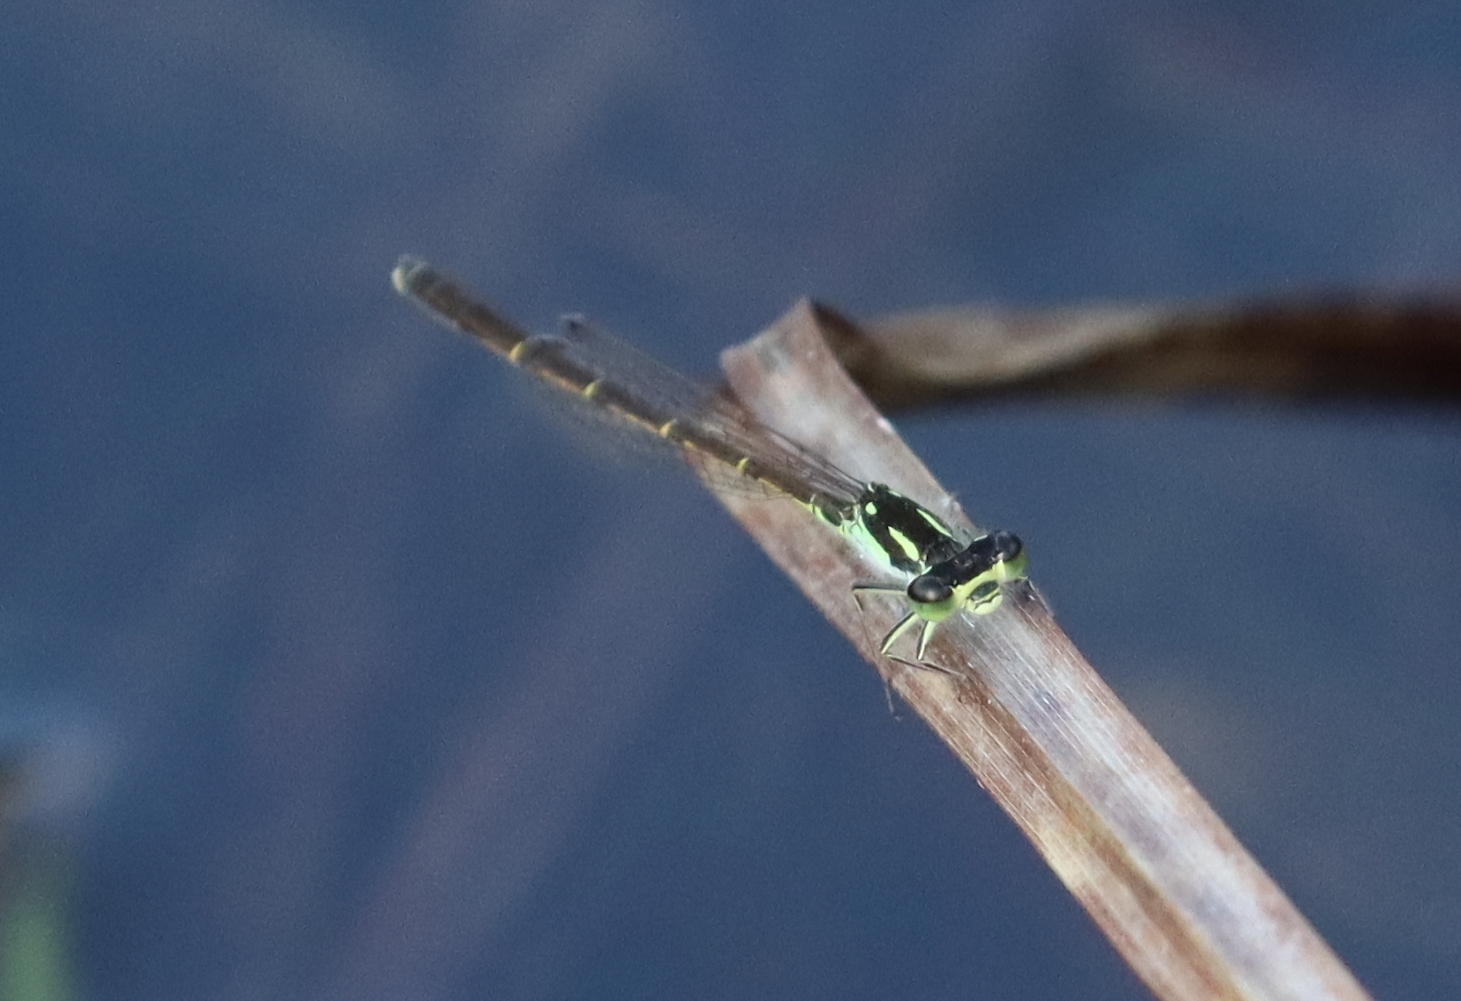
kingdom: Animalia
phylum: Arthropoda
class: Insecta
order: Odonata
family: Coenagrionidae
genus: Ischnura
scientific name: Ischnura posita
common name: Fragile forktail
